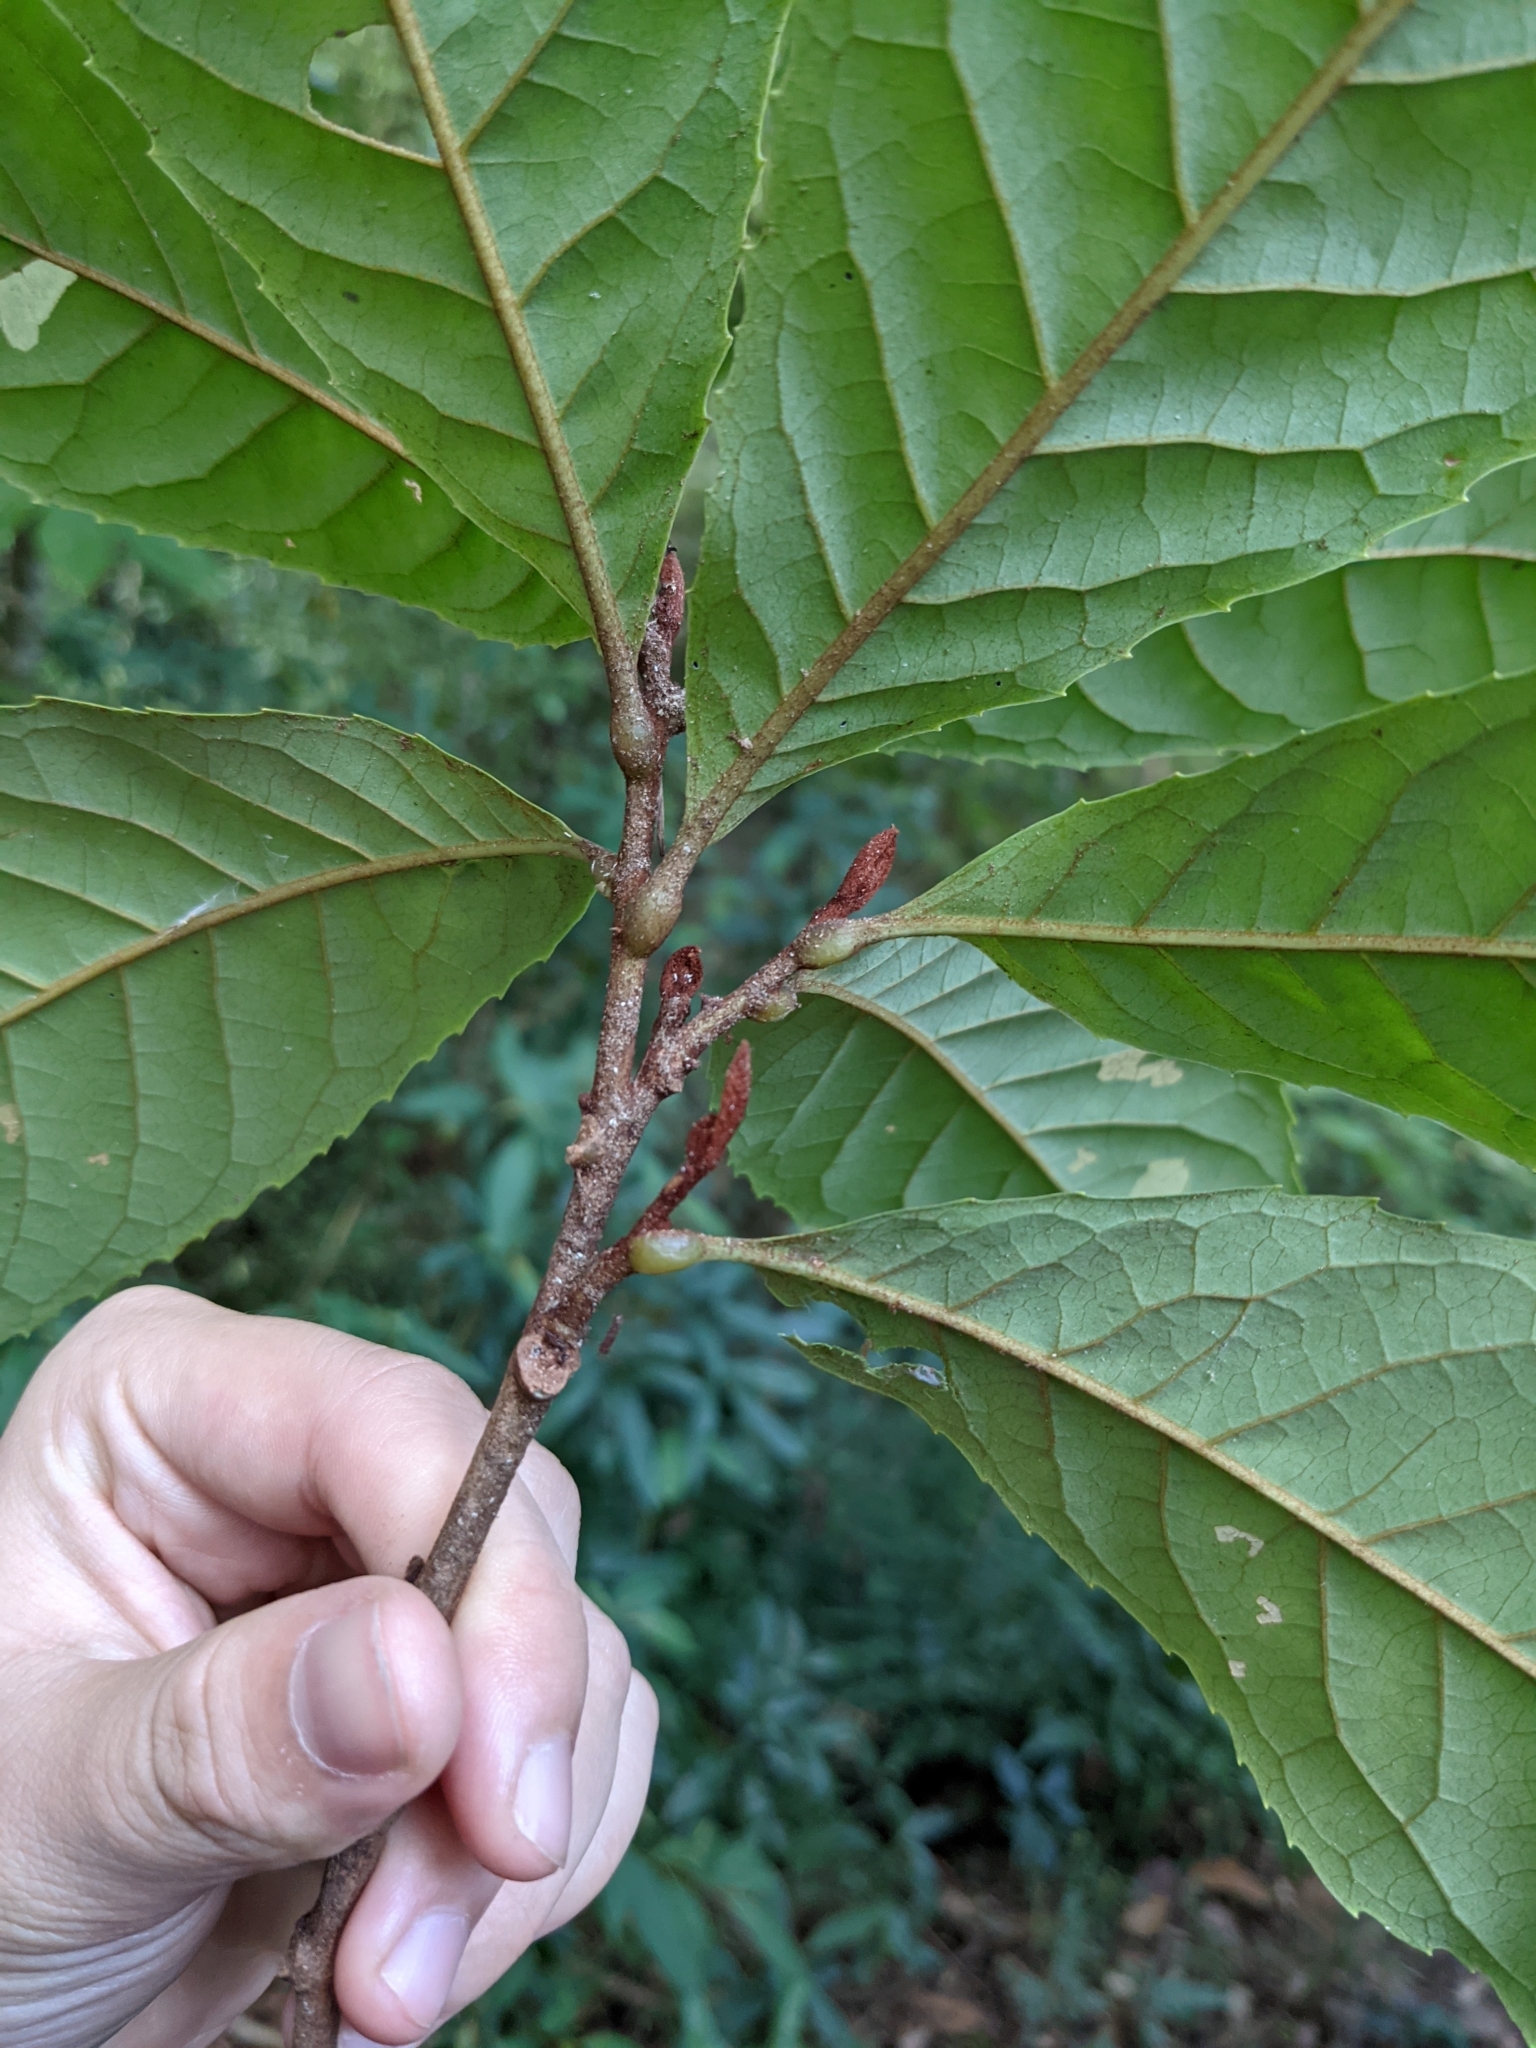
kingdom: Plantae
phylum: Tracheophyta
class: Magnoliopsida
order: Proteales
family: Proteaceae
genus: Helicia
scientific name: Helicia formosana
